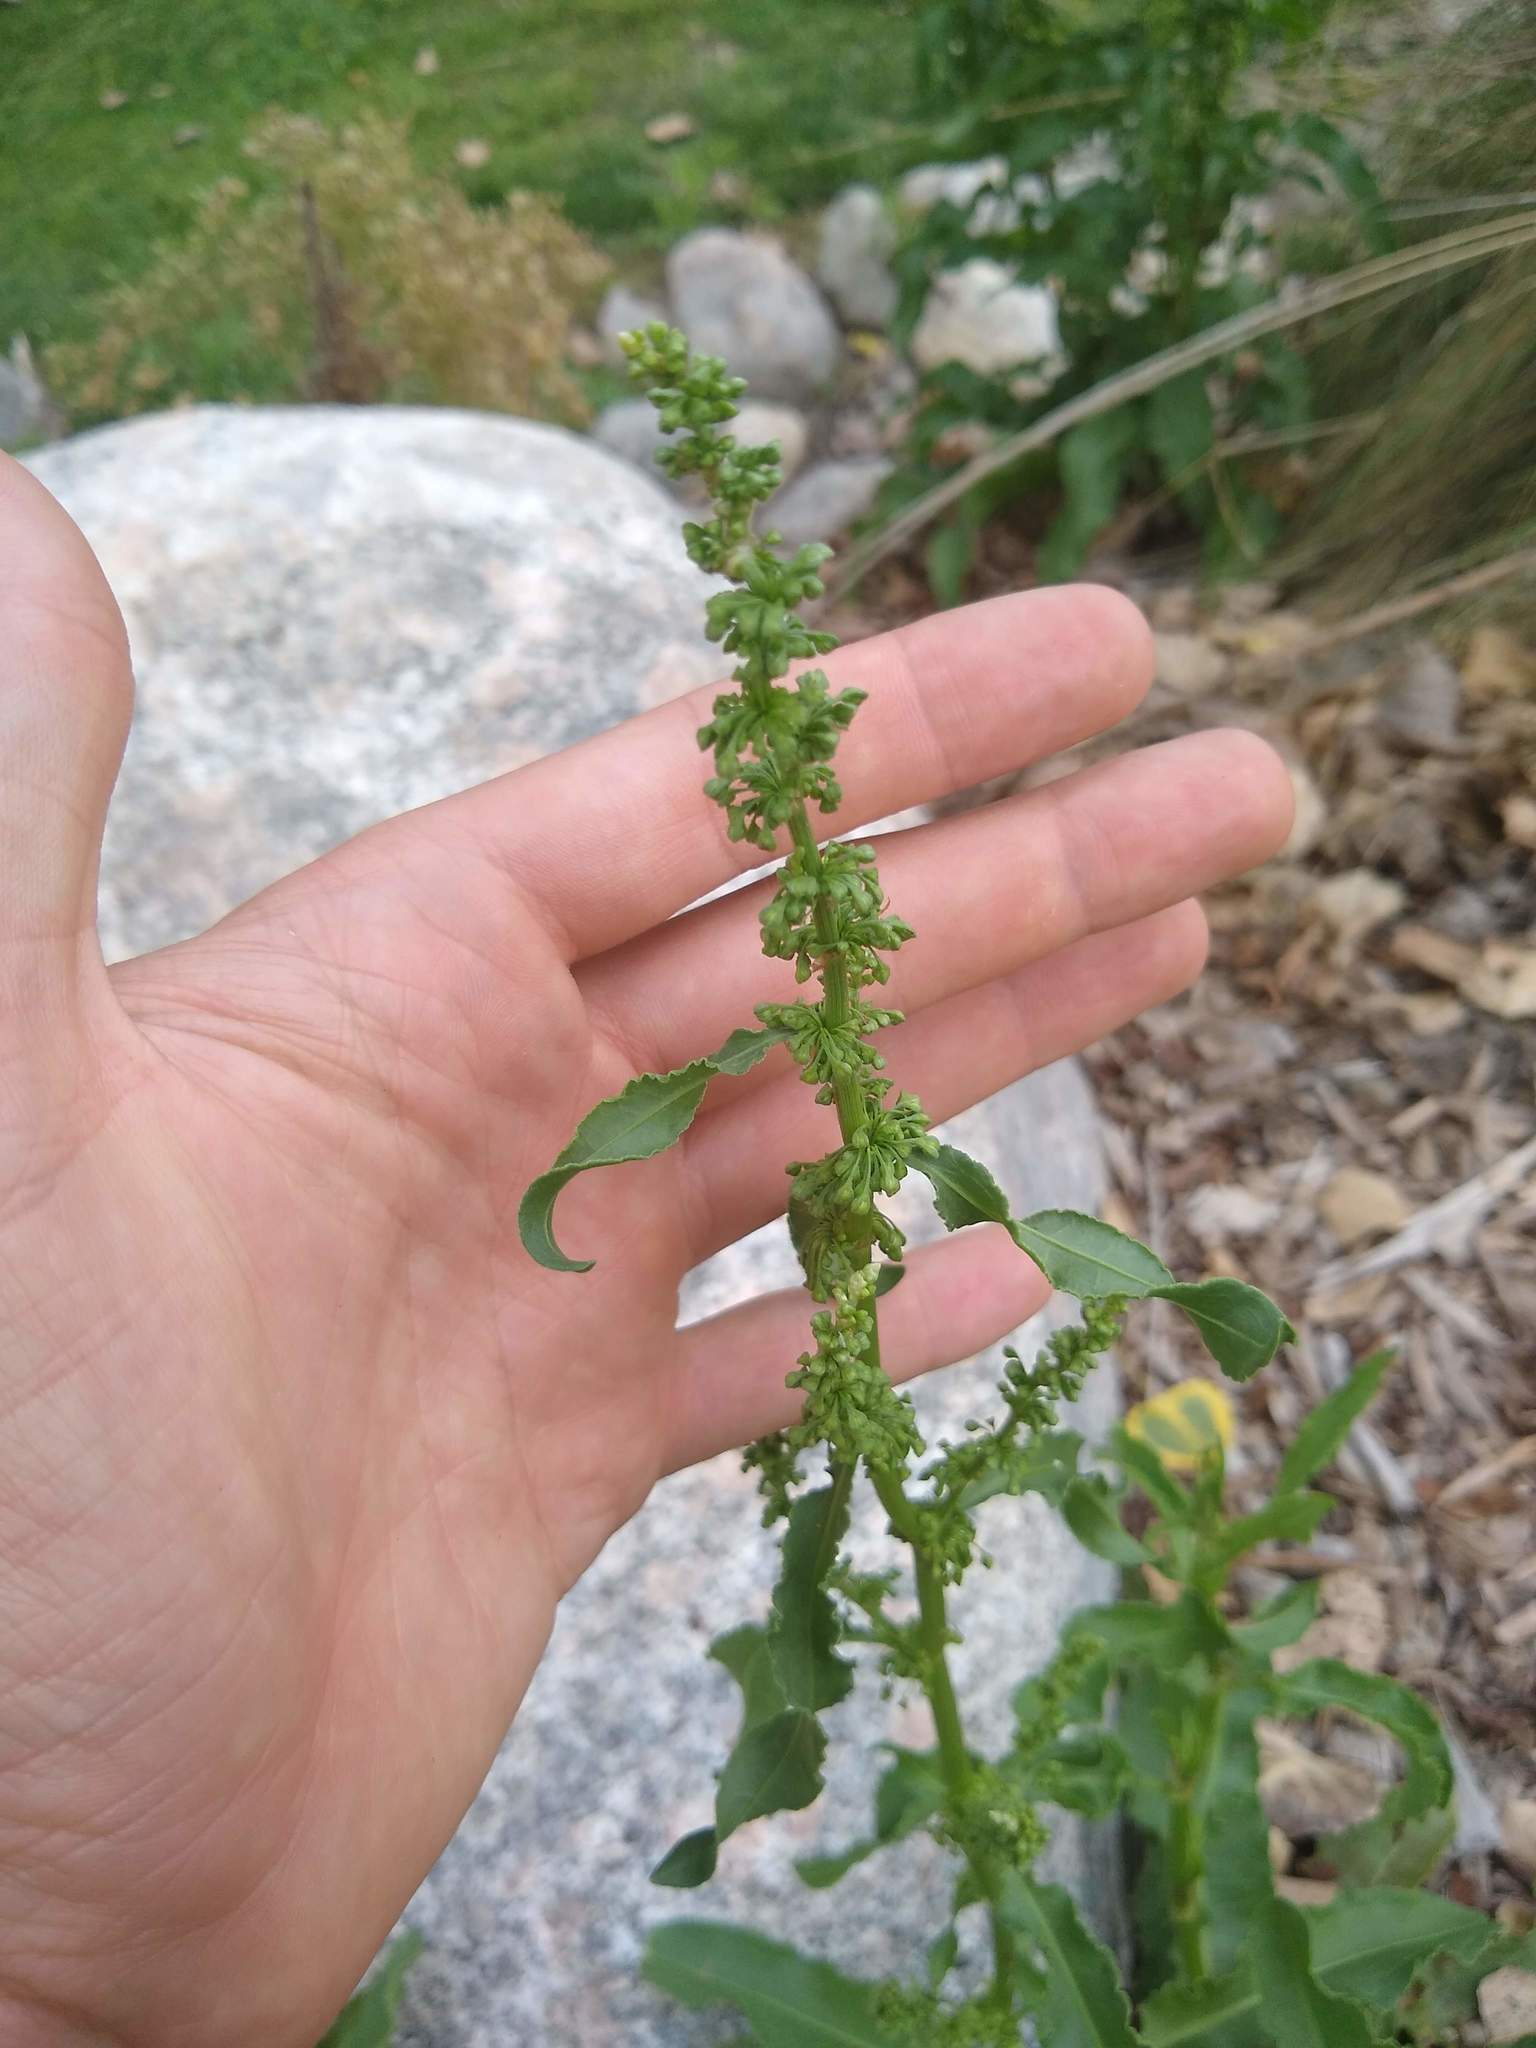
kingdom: Plantae
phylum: Tracheophyta
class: Magnoliopsida
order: Caryophyllales
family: Polygonaceae
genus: Rumex
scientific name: Rumex crispus
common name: Curled dock
